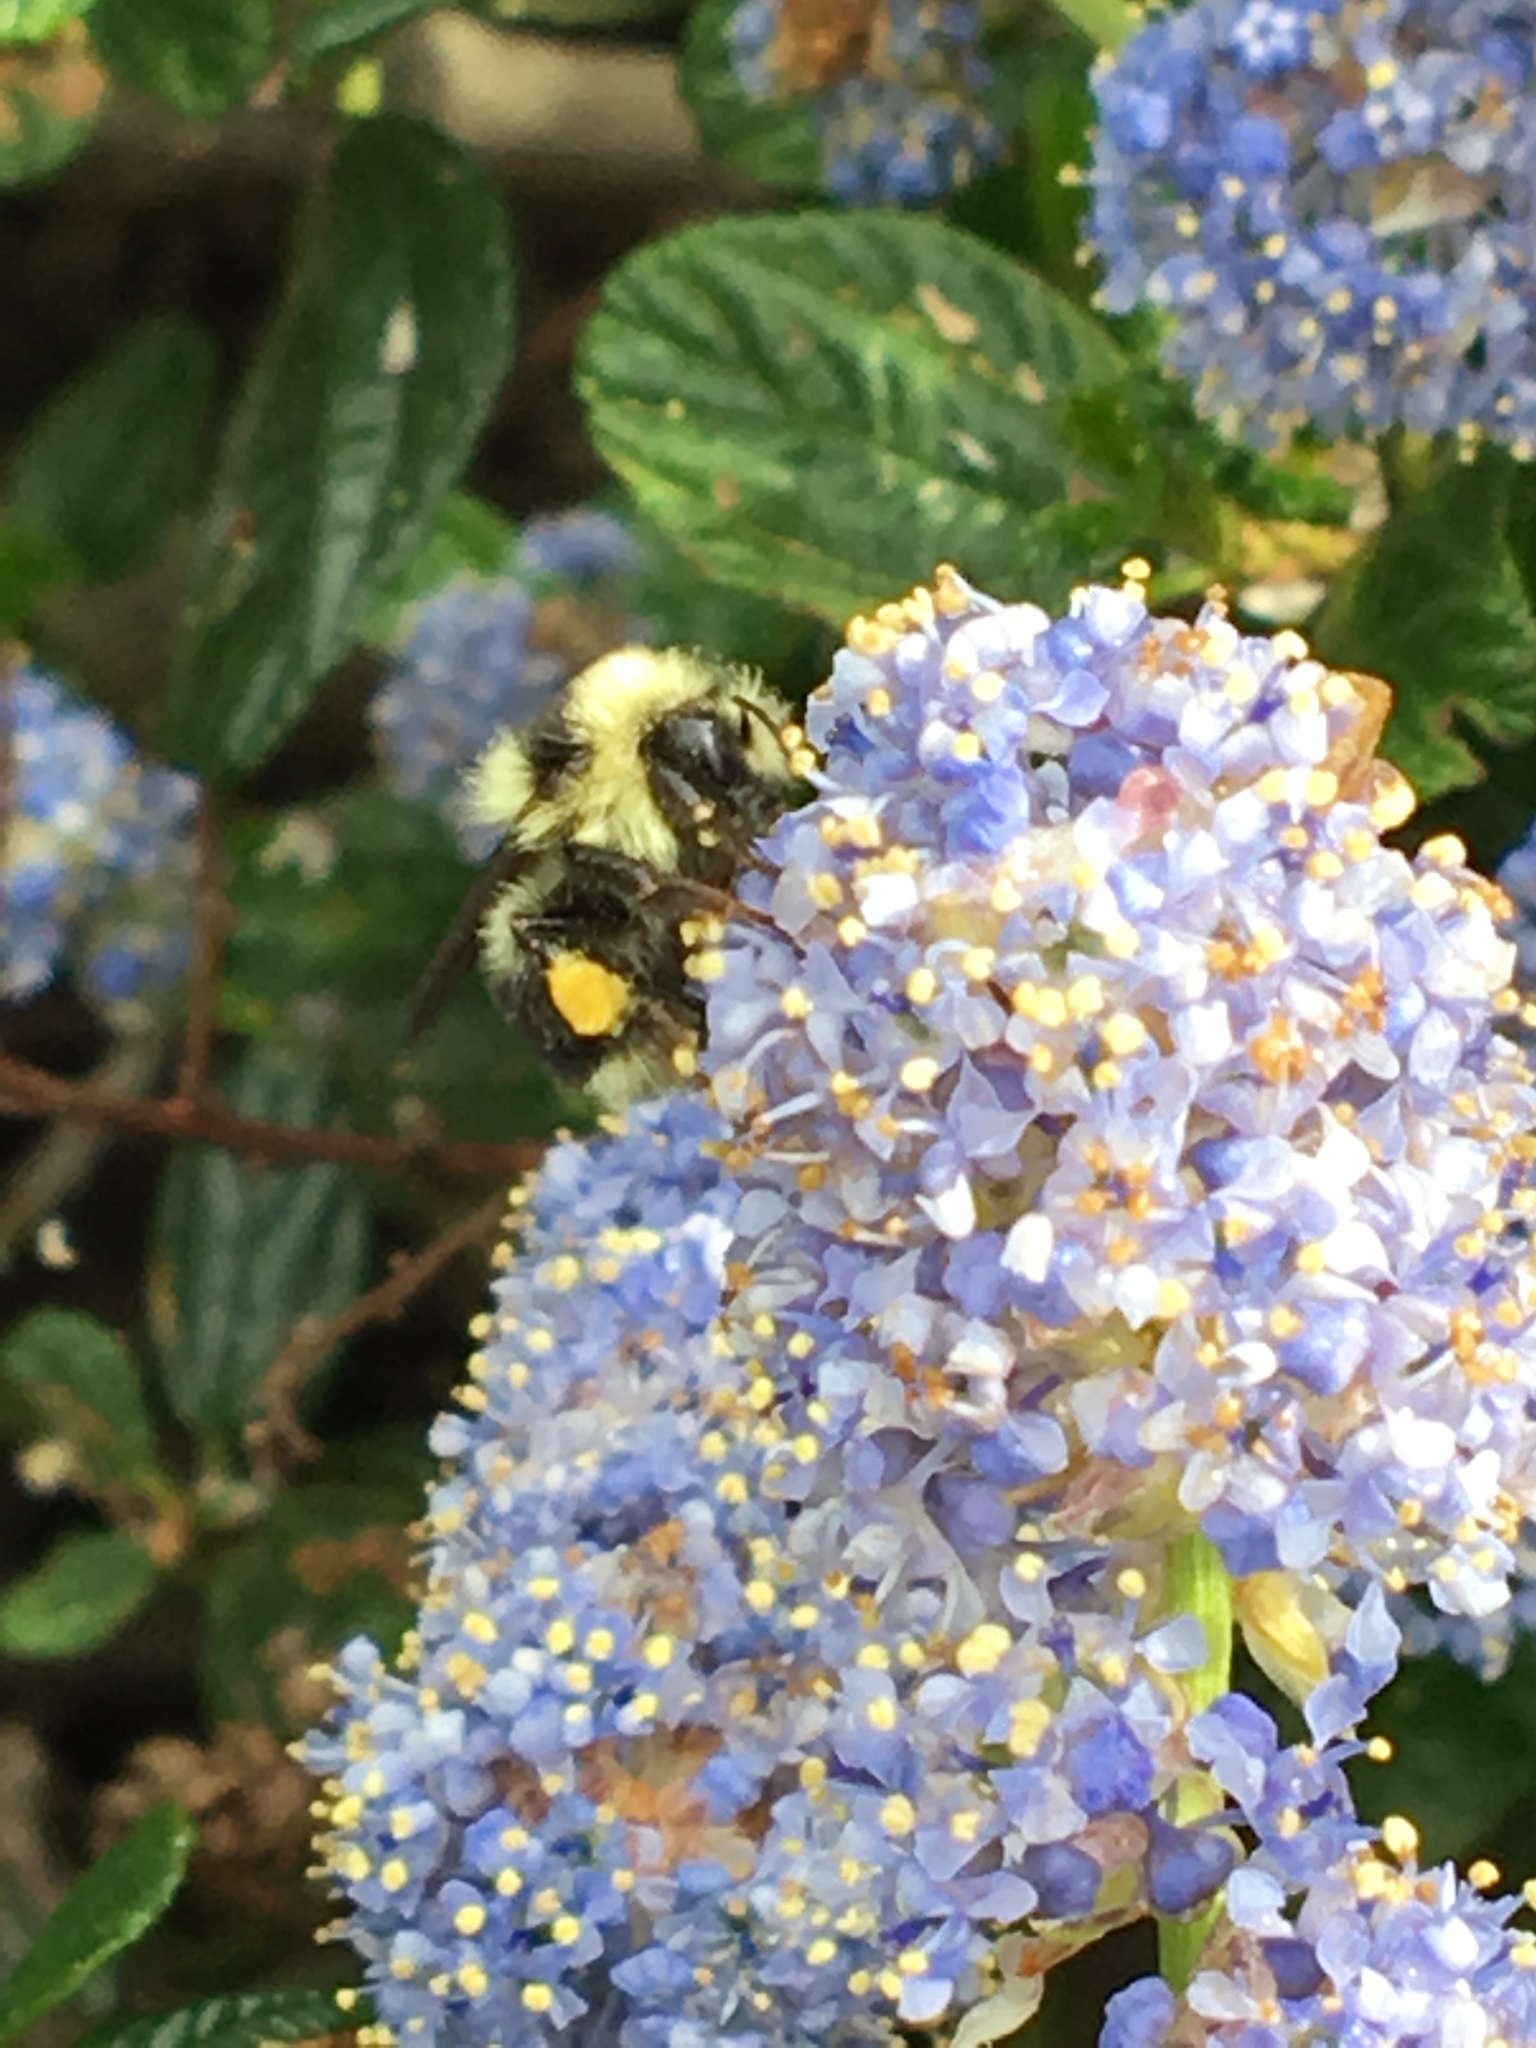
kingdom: Animalia
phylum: Arthropoda
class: Insecta
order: Hymenoptera
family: Apidae
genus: Bombus
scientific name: Bombus melanopygus
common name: Black tail bumble bee
